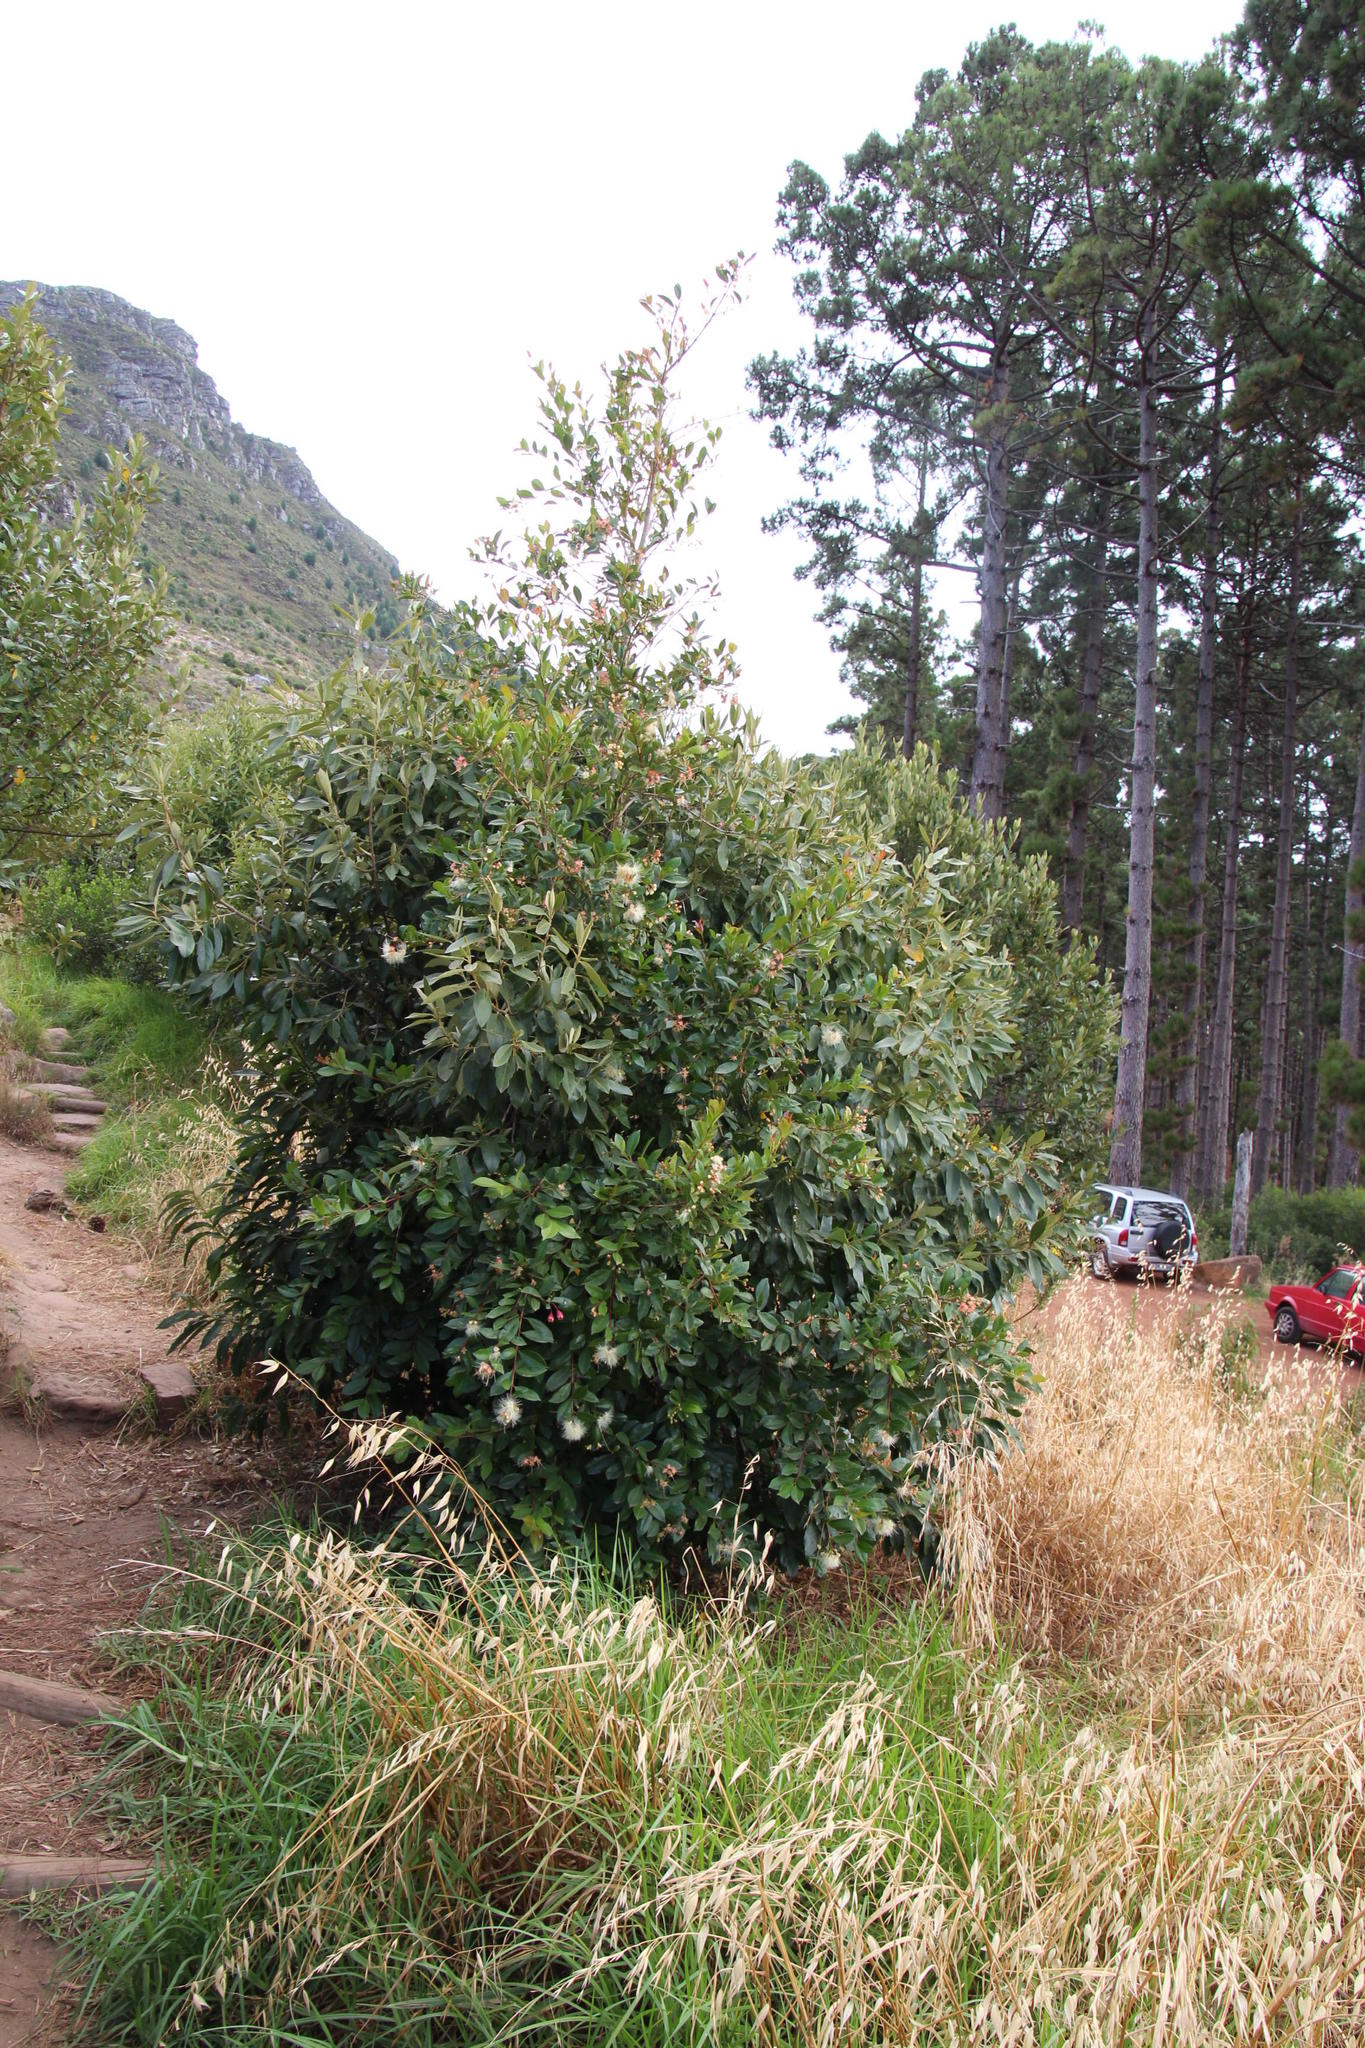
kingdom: Plantae
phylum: Tracheophyta
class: Magnoliopsida
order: Myrtales
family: Myrtaceae
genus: Syzygium
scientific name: Syzygium australe
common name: Australian brush-cherry
